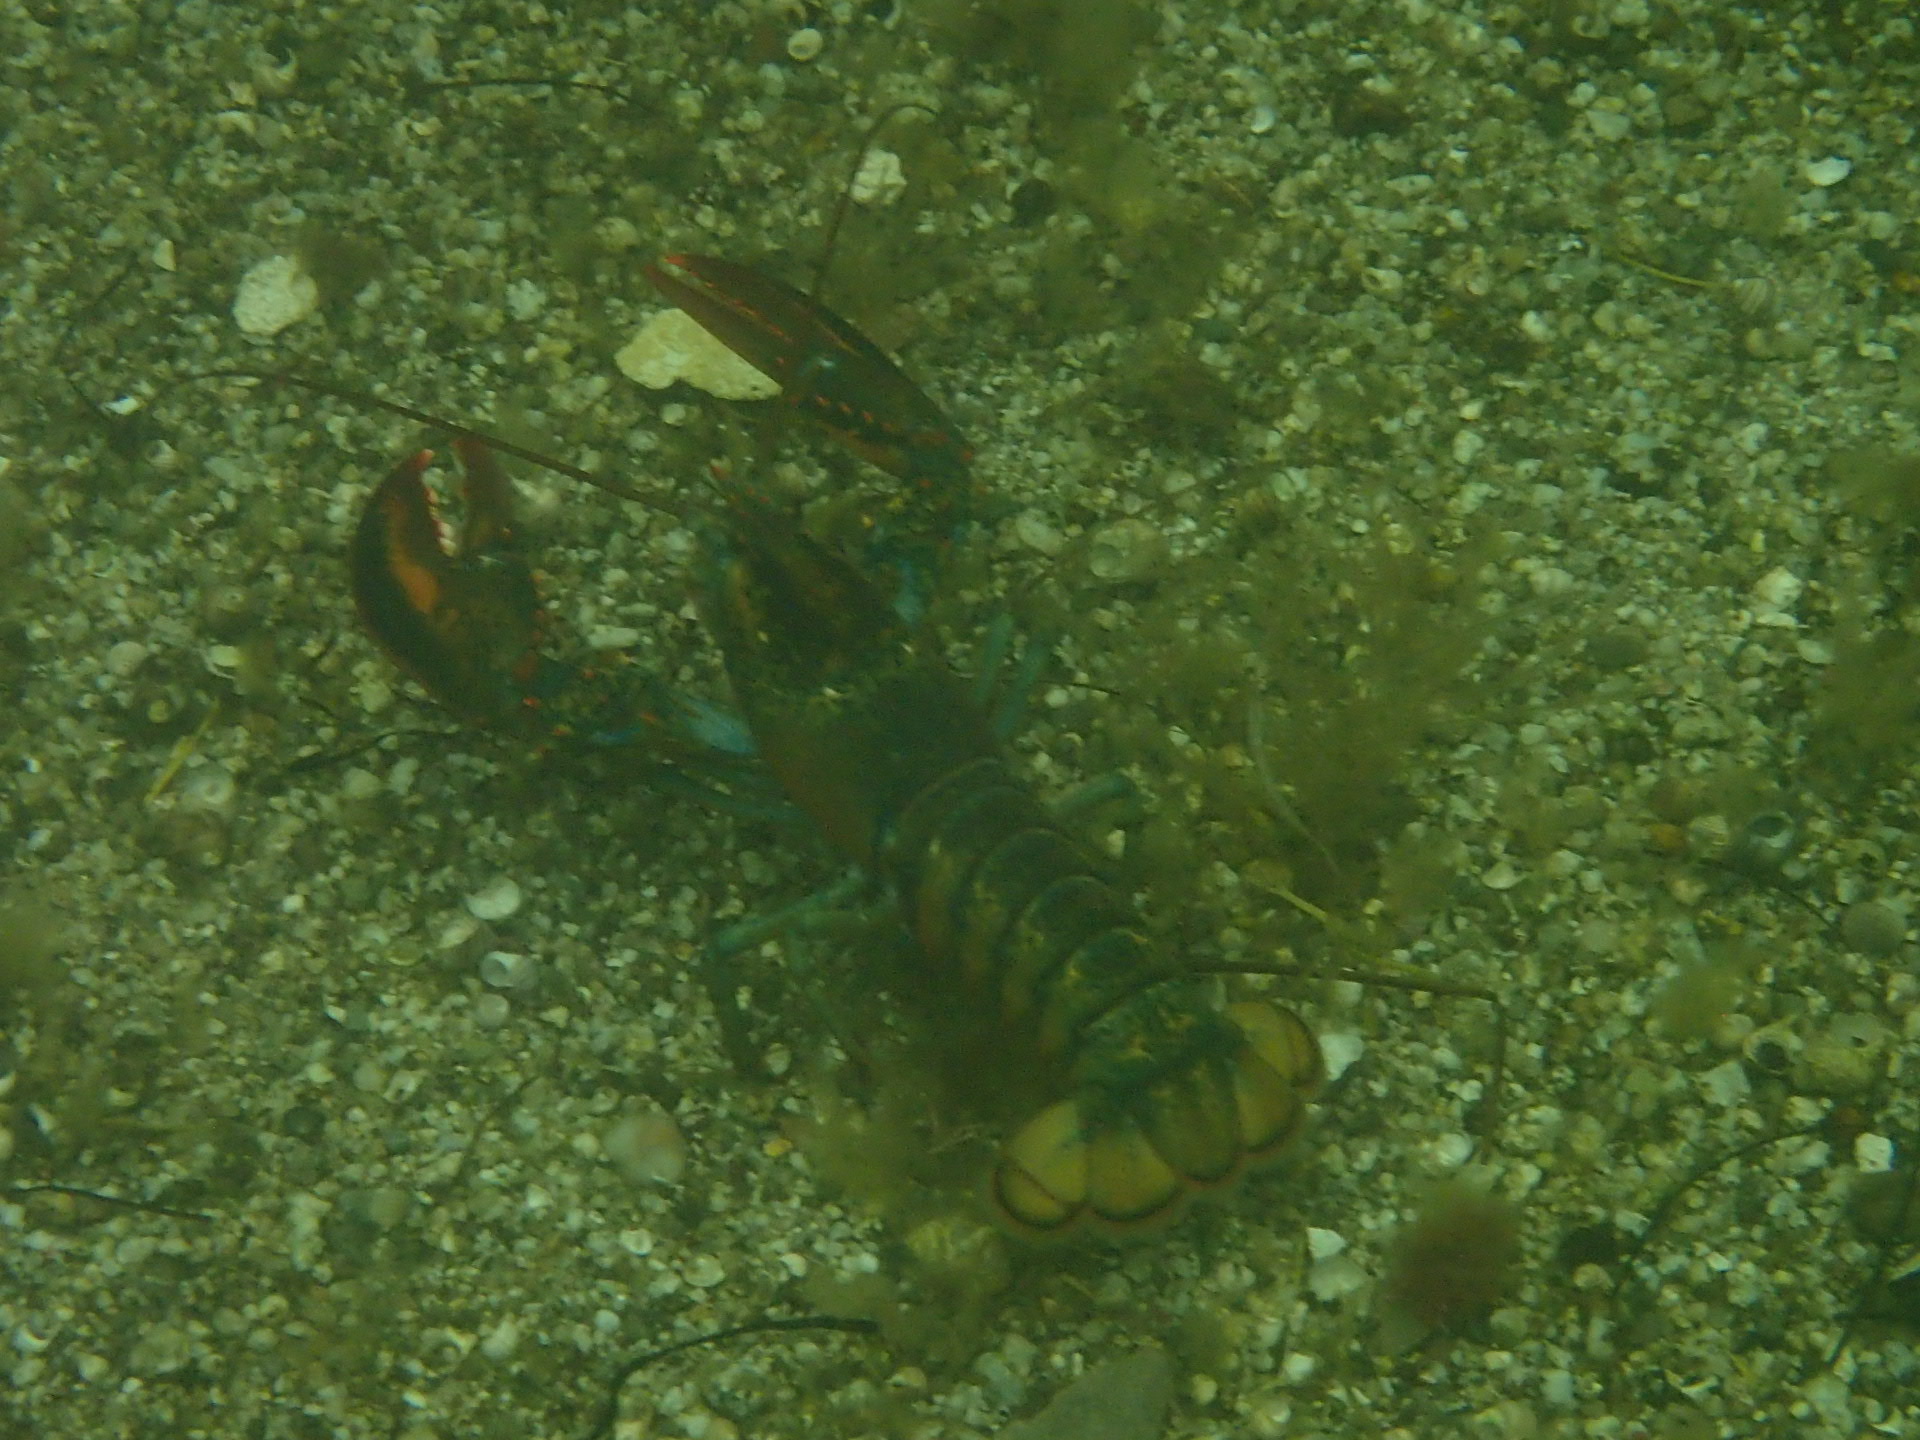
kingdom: Animalia
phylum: Arthropoda
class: Malacostraca
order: Decapoda
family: Nephropidae
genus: Homarus
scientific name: Homarus americanus
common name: American lobster
